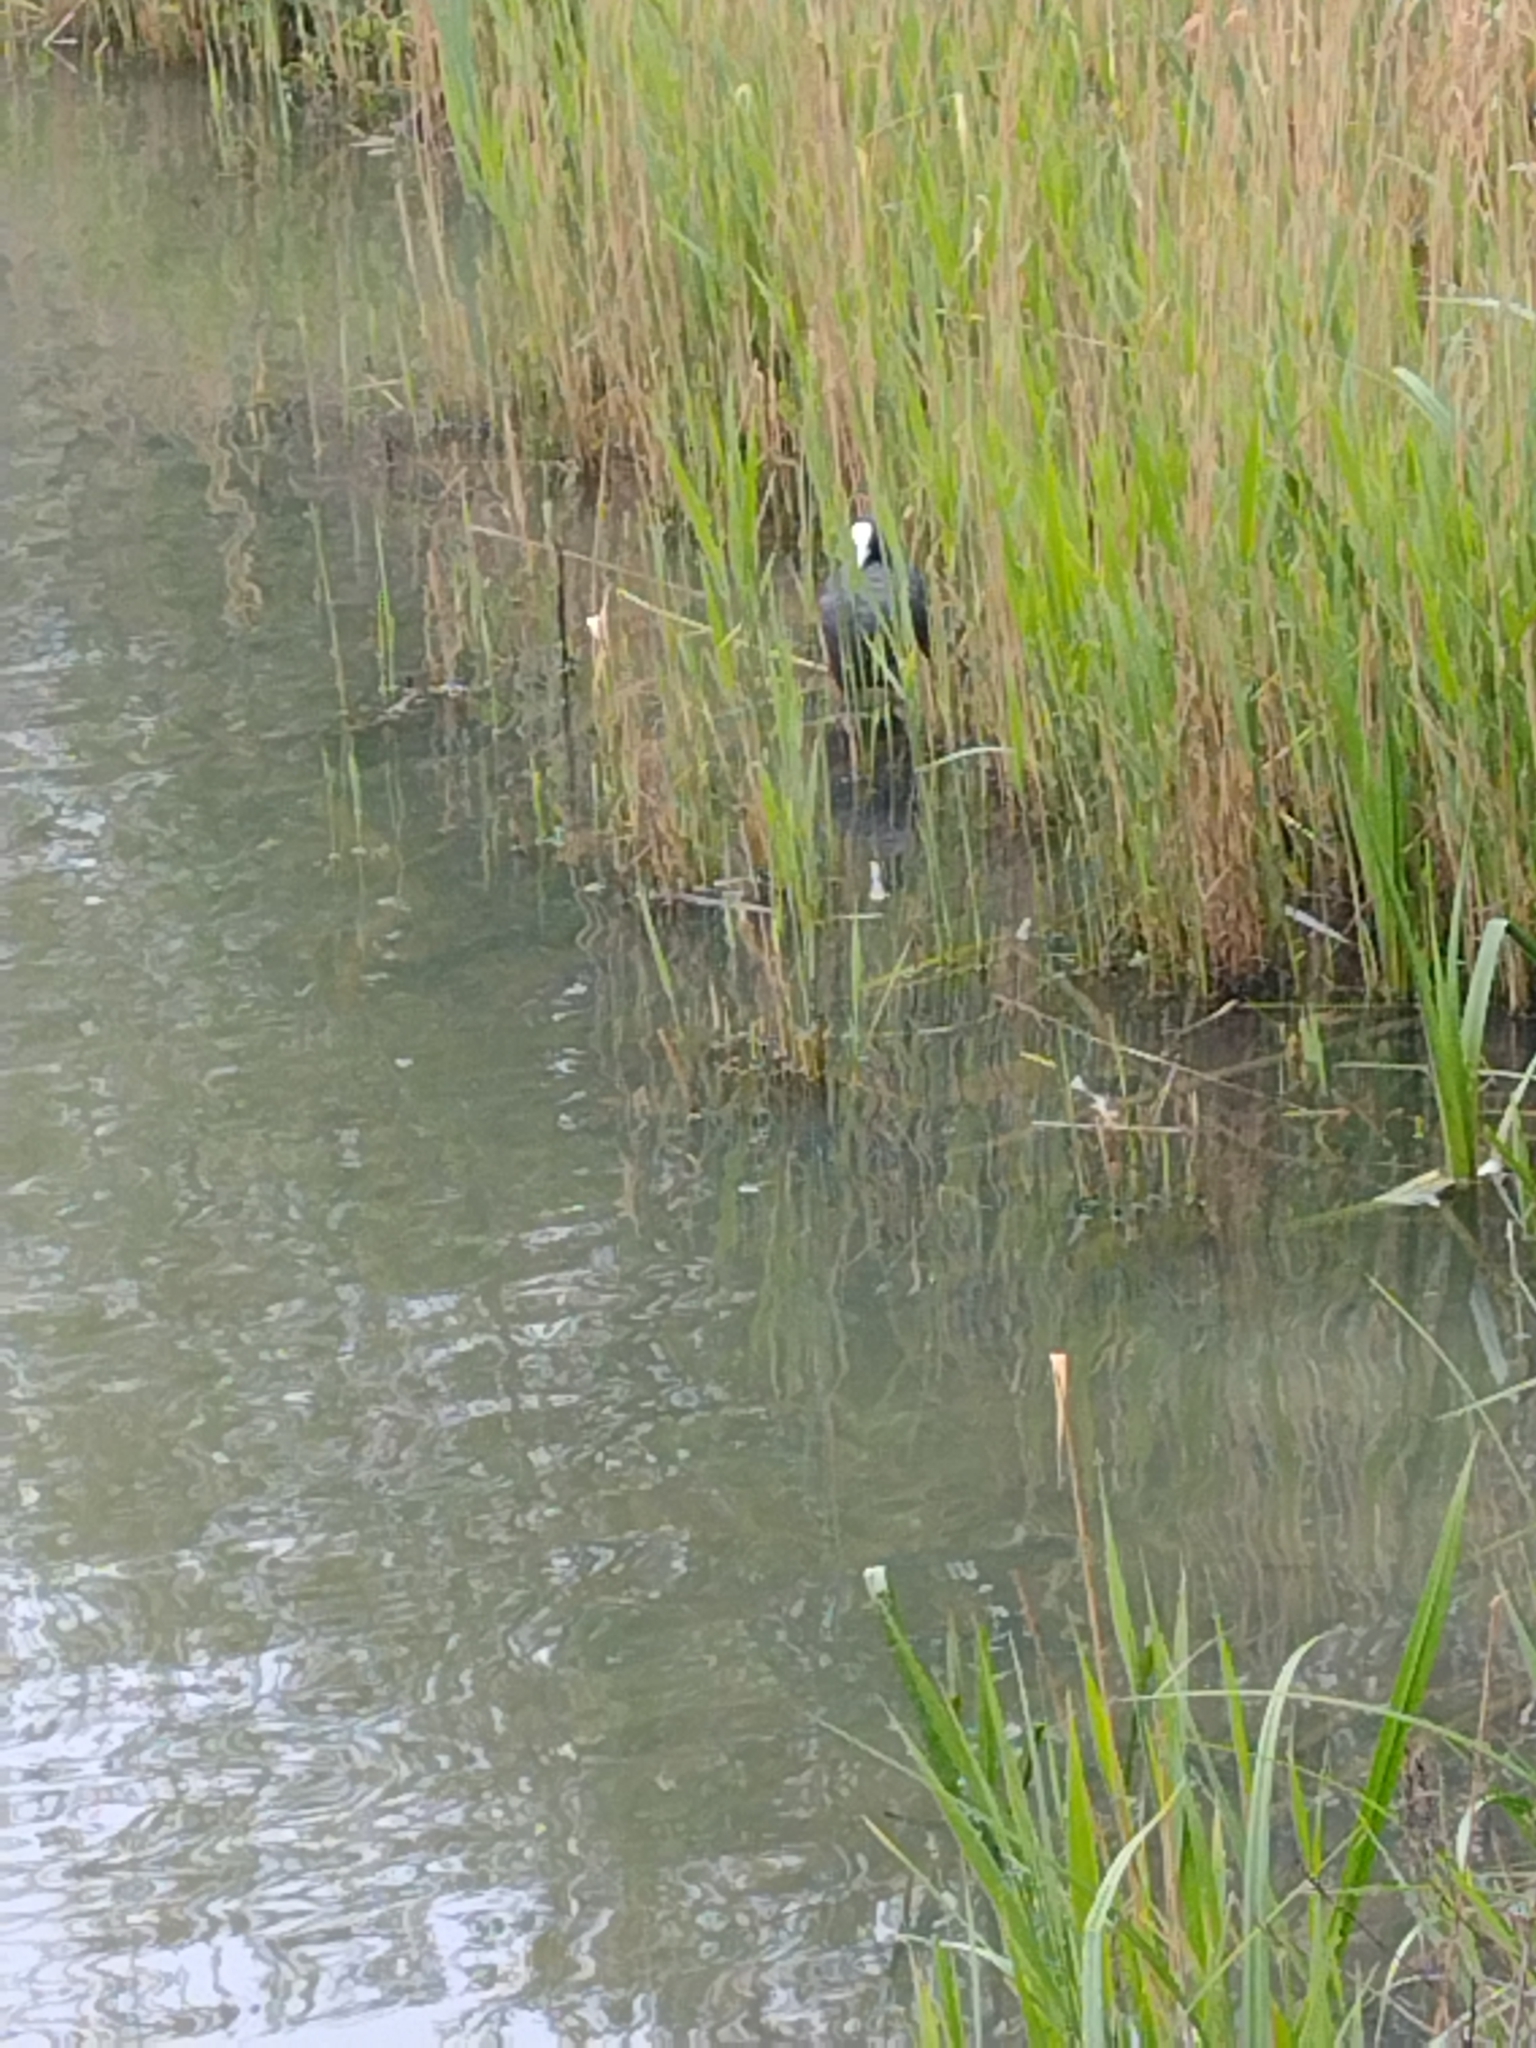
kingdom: Animalia
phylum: Chordata
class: Aves
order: Gruiformes
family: Rallidae
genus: Fulica
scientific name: Fulica atra
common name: Eurasian coot
